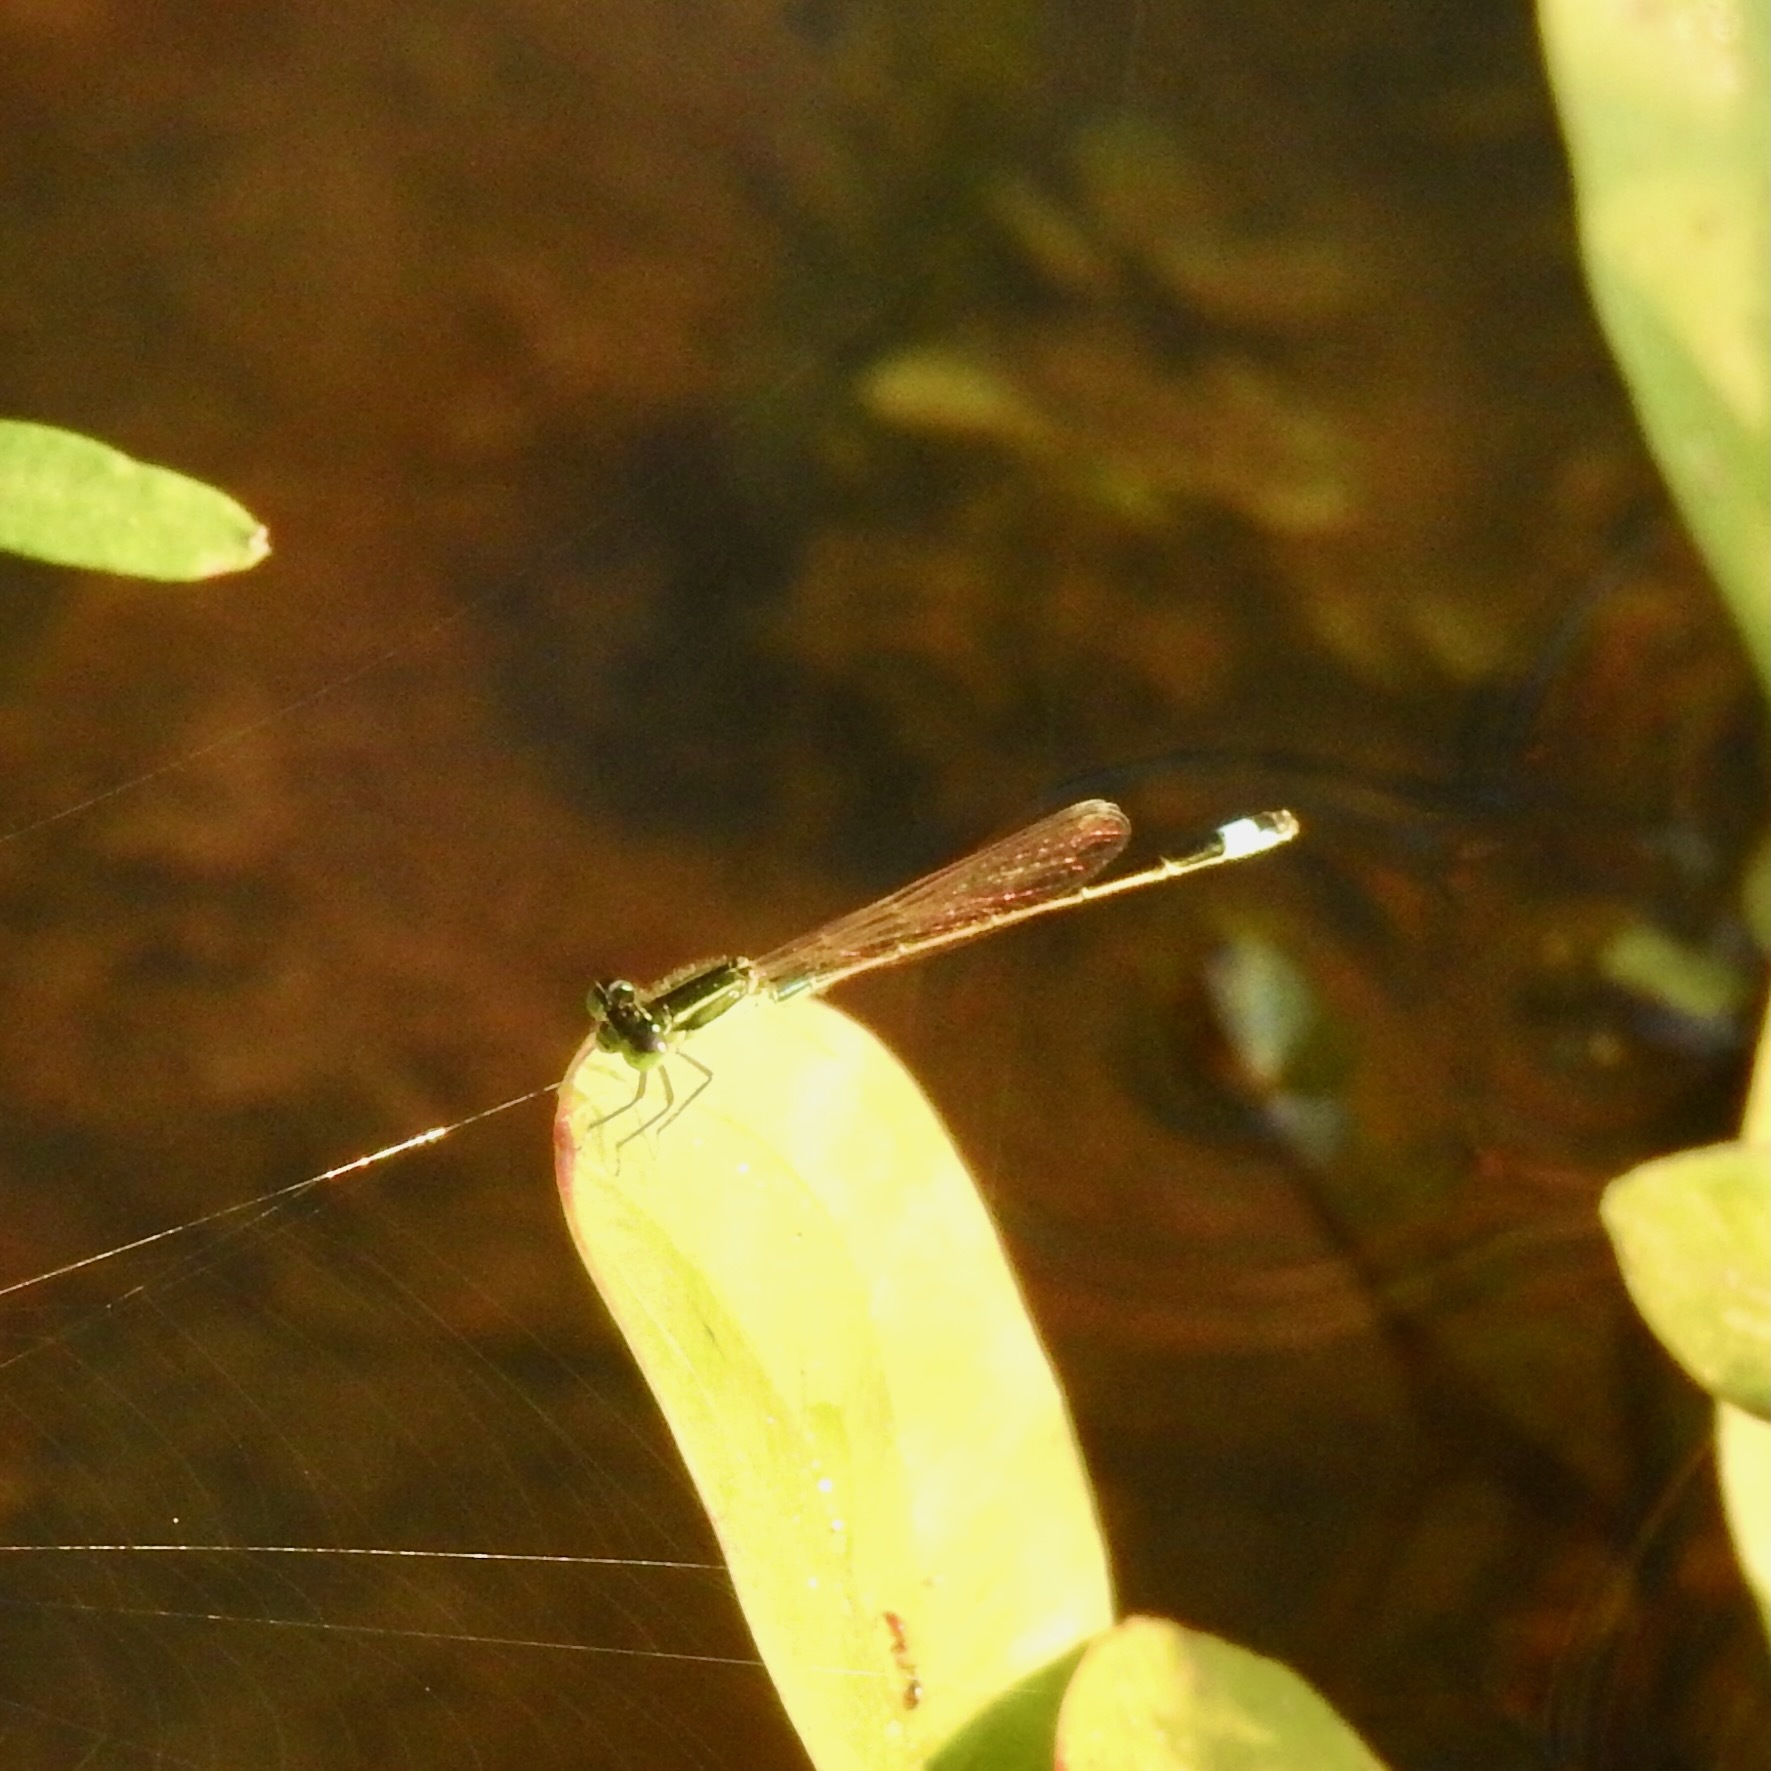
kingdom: Animalia
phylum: Arthropoda
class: Insecta
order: Odonata
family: Coenagrionidae
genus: Ischnura
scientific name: Ischnura ramburii
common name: Rambur's forktail
